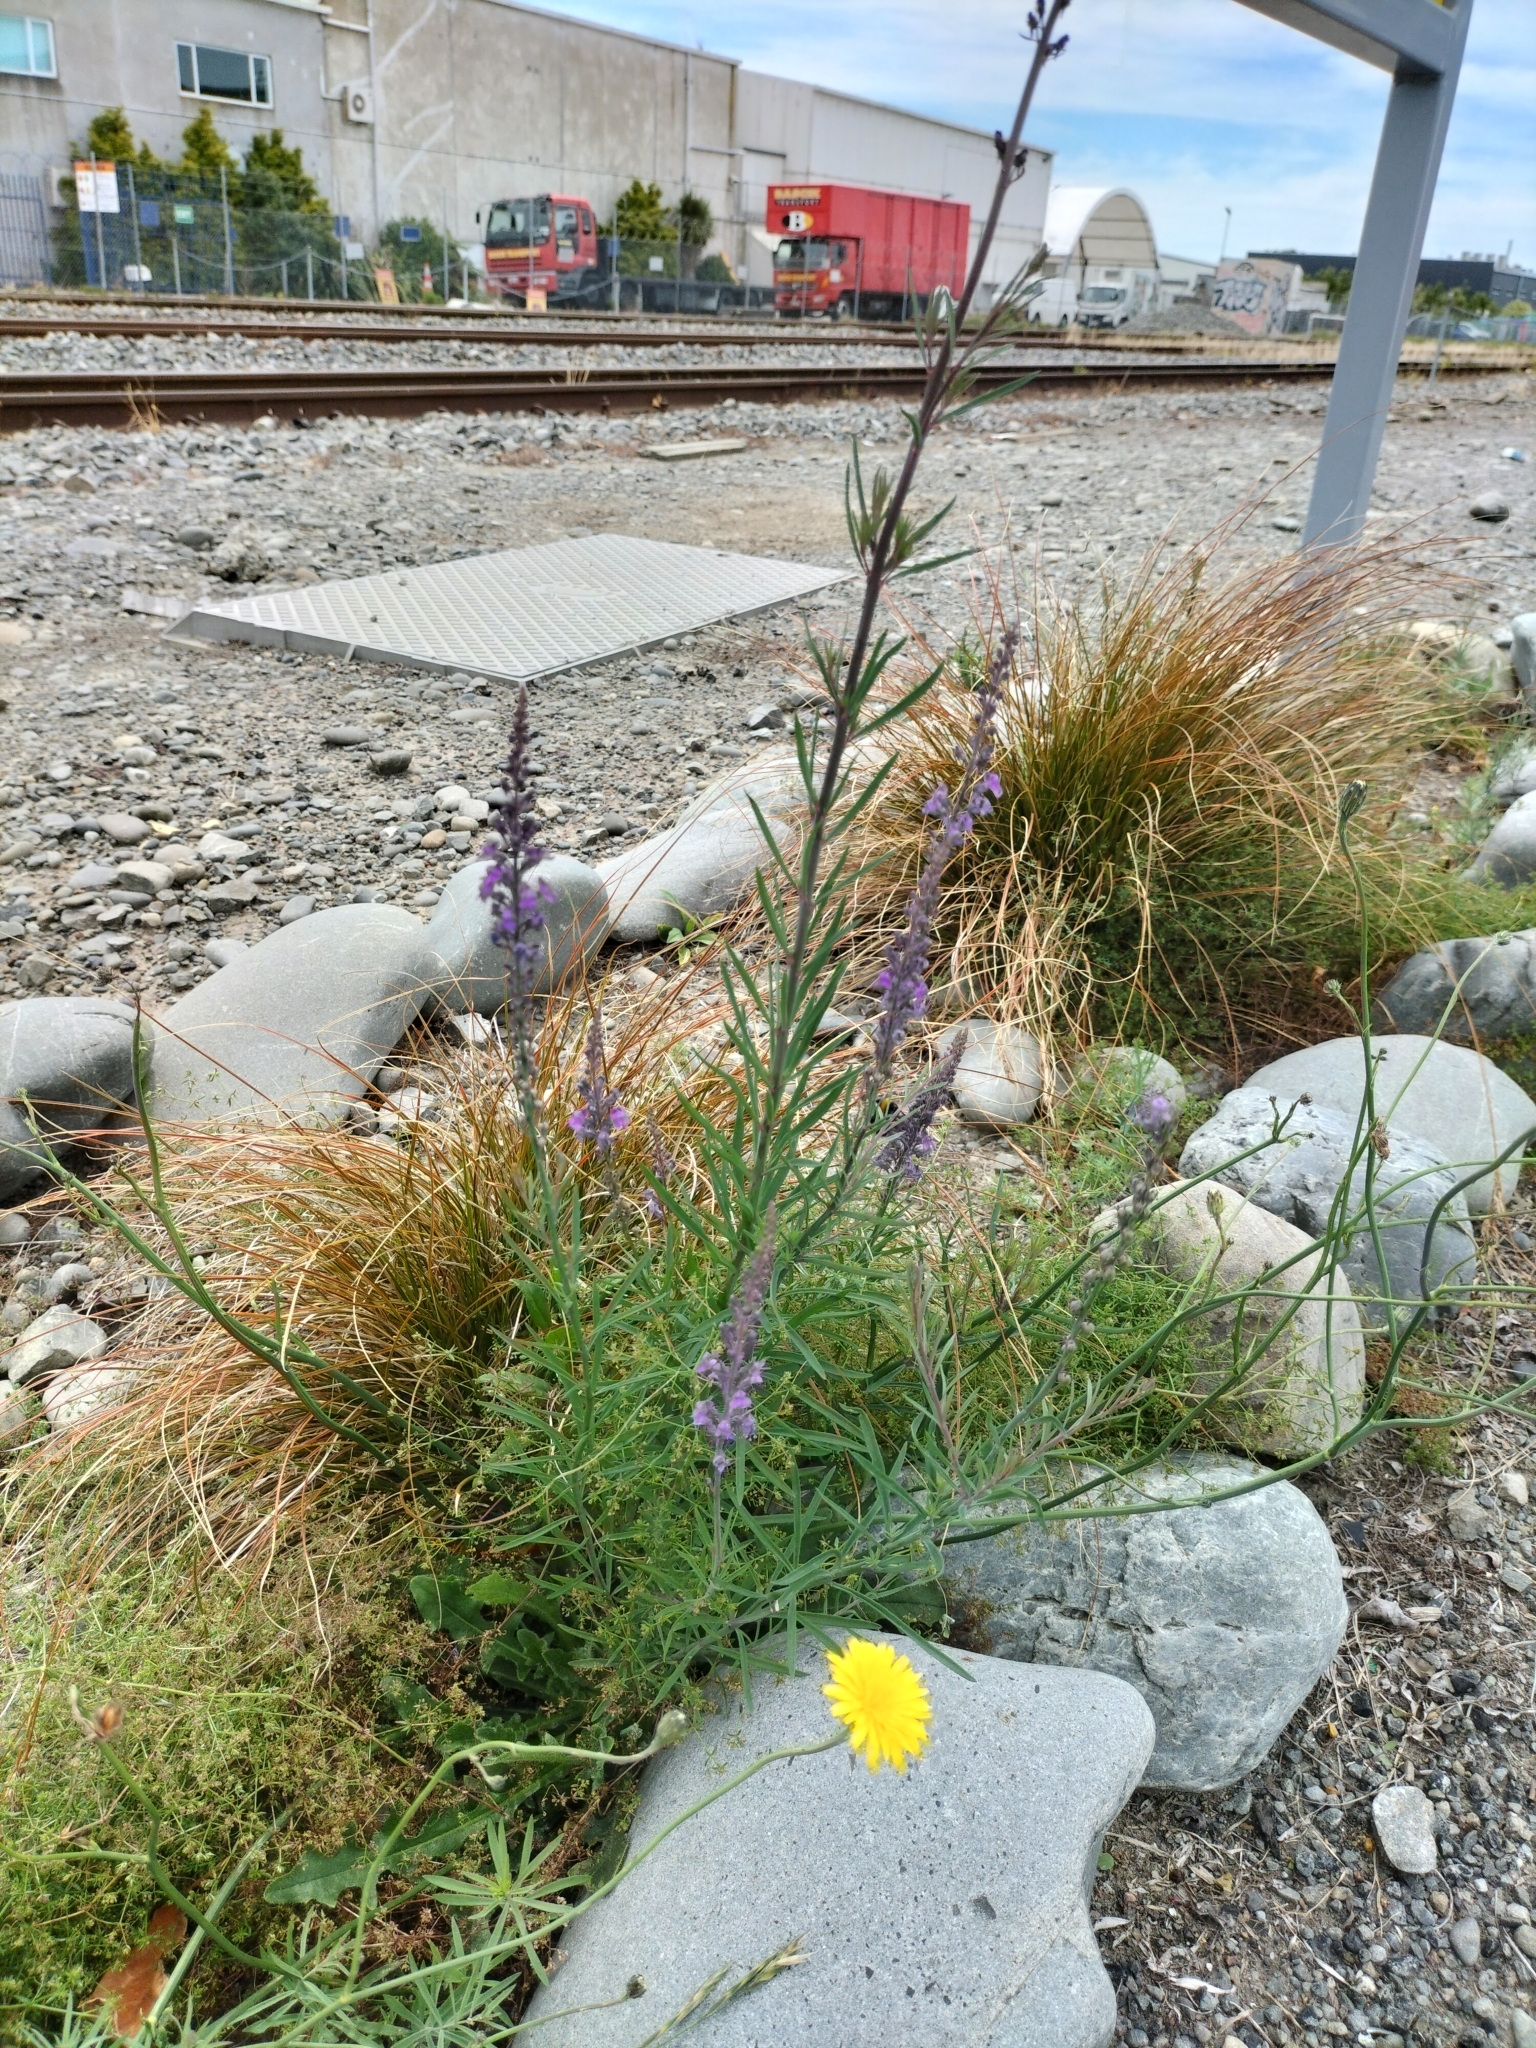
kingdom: Plantae
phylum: Tracheophyta
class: Magnoliopsida
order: Lamiales
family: Plantaginaceae
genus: Linaria
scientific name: Linaria purpurea
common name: Purple toadflax
